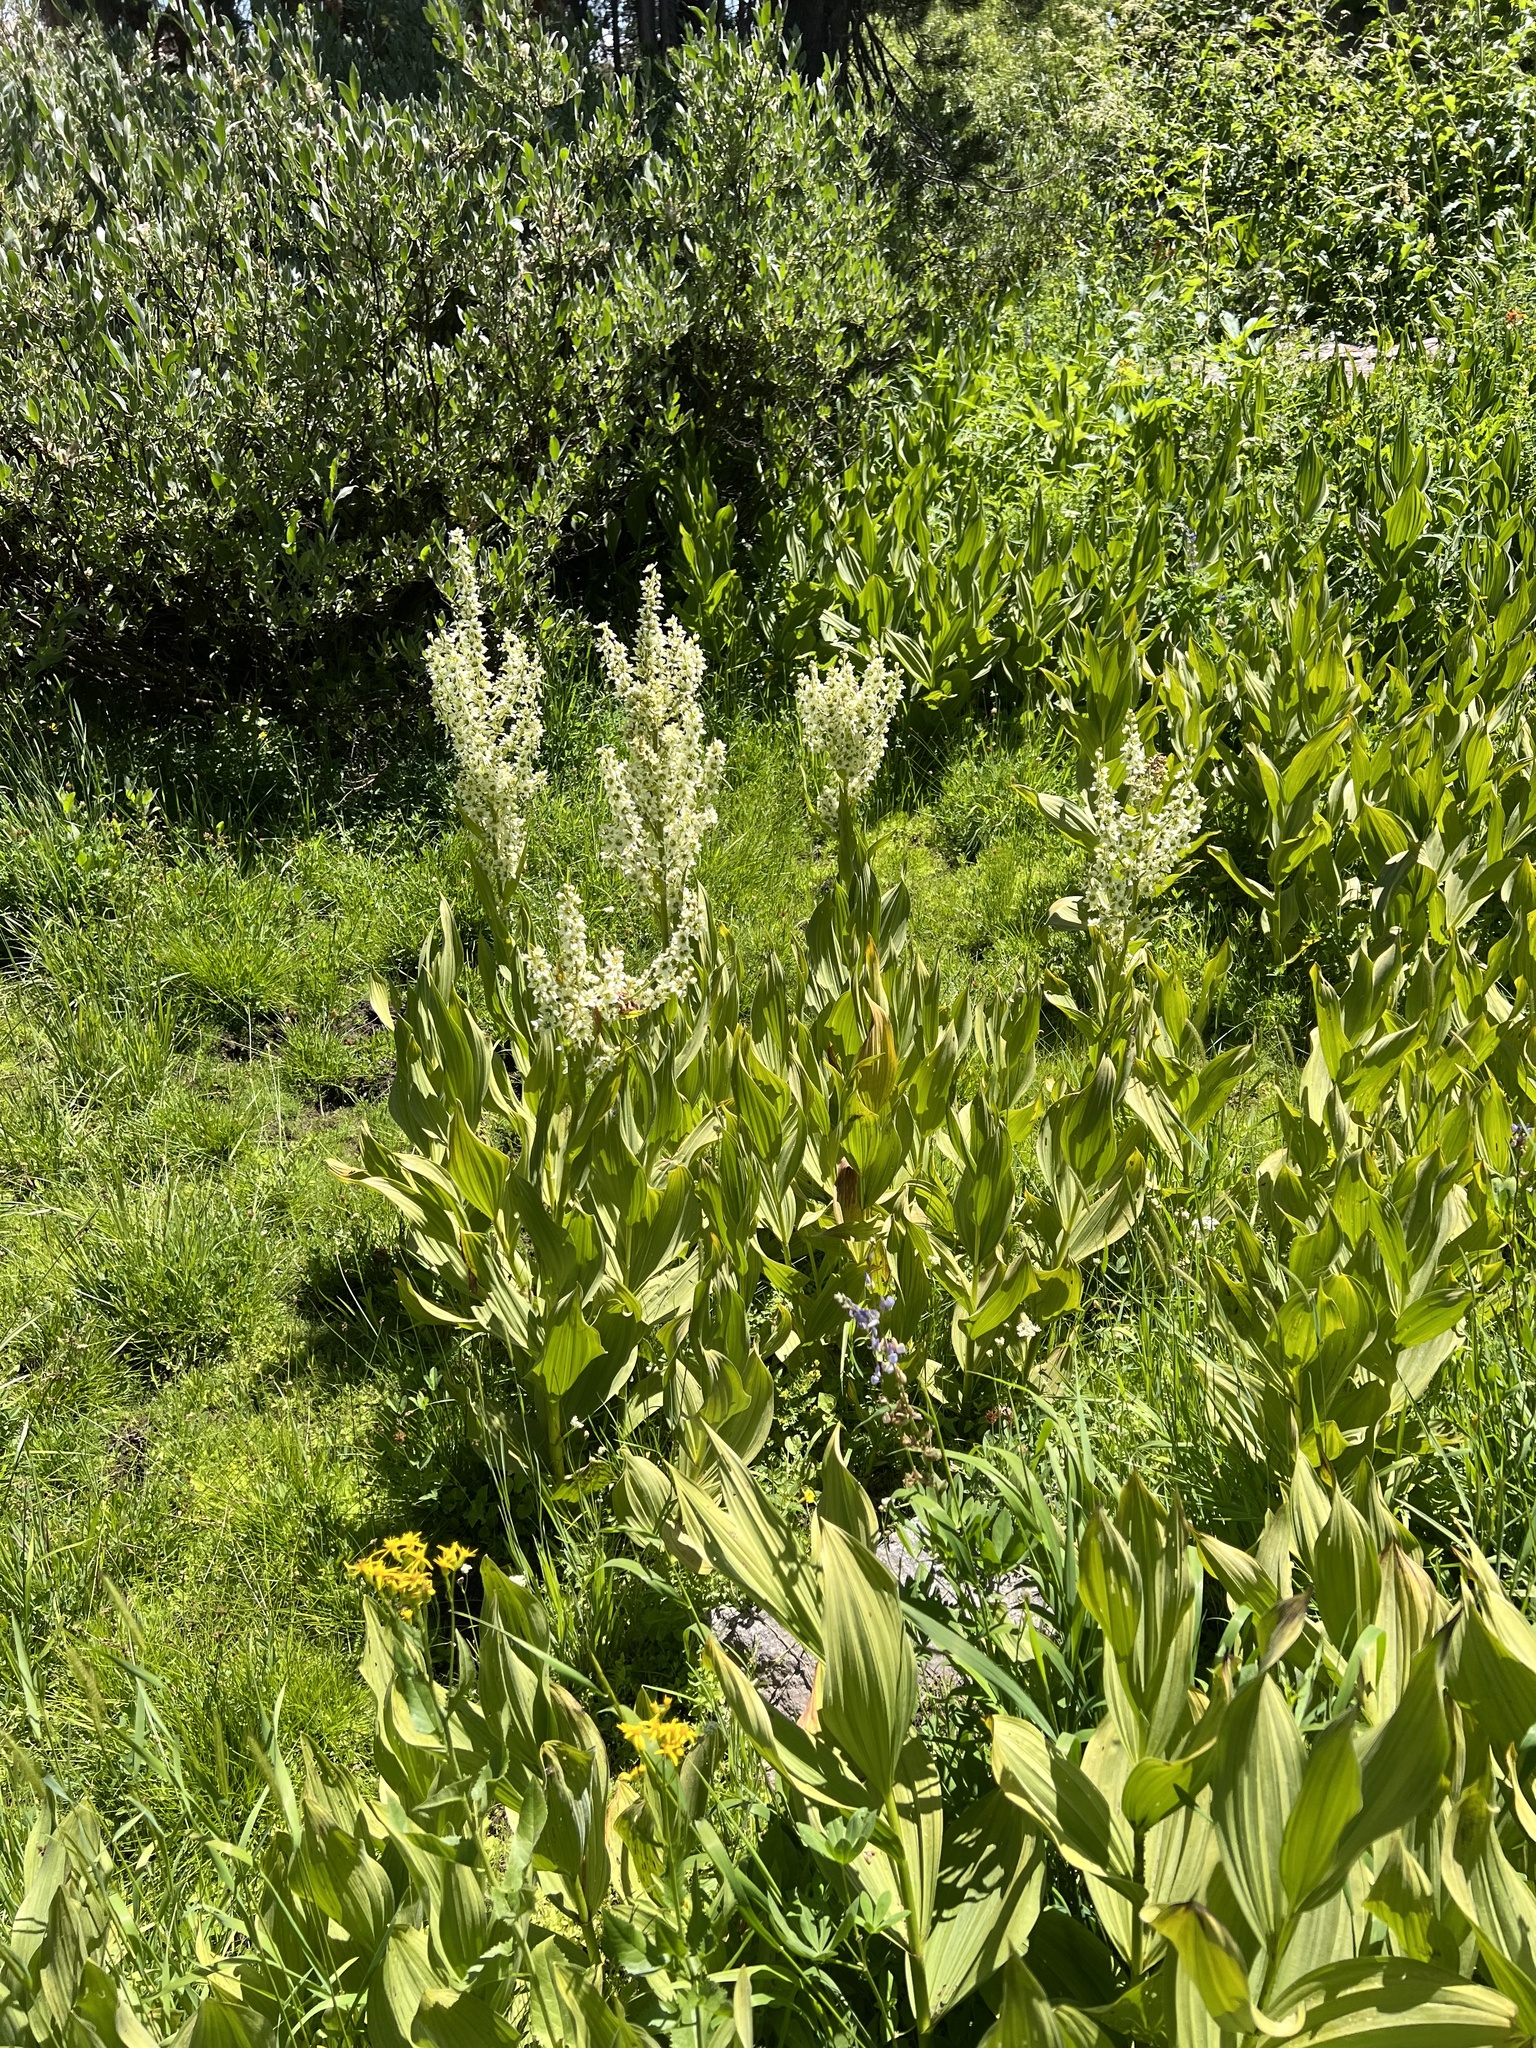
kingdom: Plantae
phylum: Tracheophyta
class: Liliopsida
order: Liliales
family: Melanthiaceae
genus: Veratrum
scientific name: Veratrum californicum
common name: California veratrum
